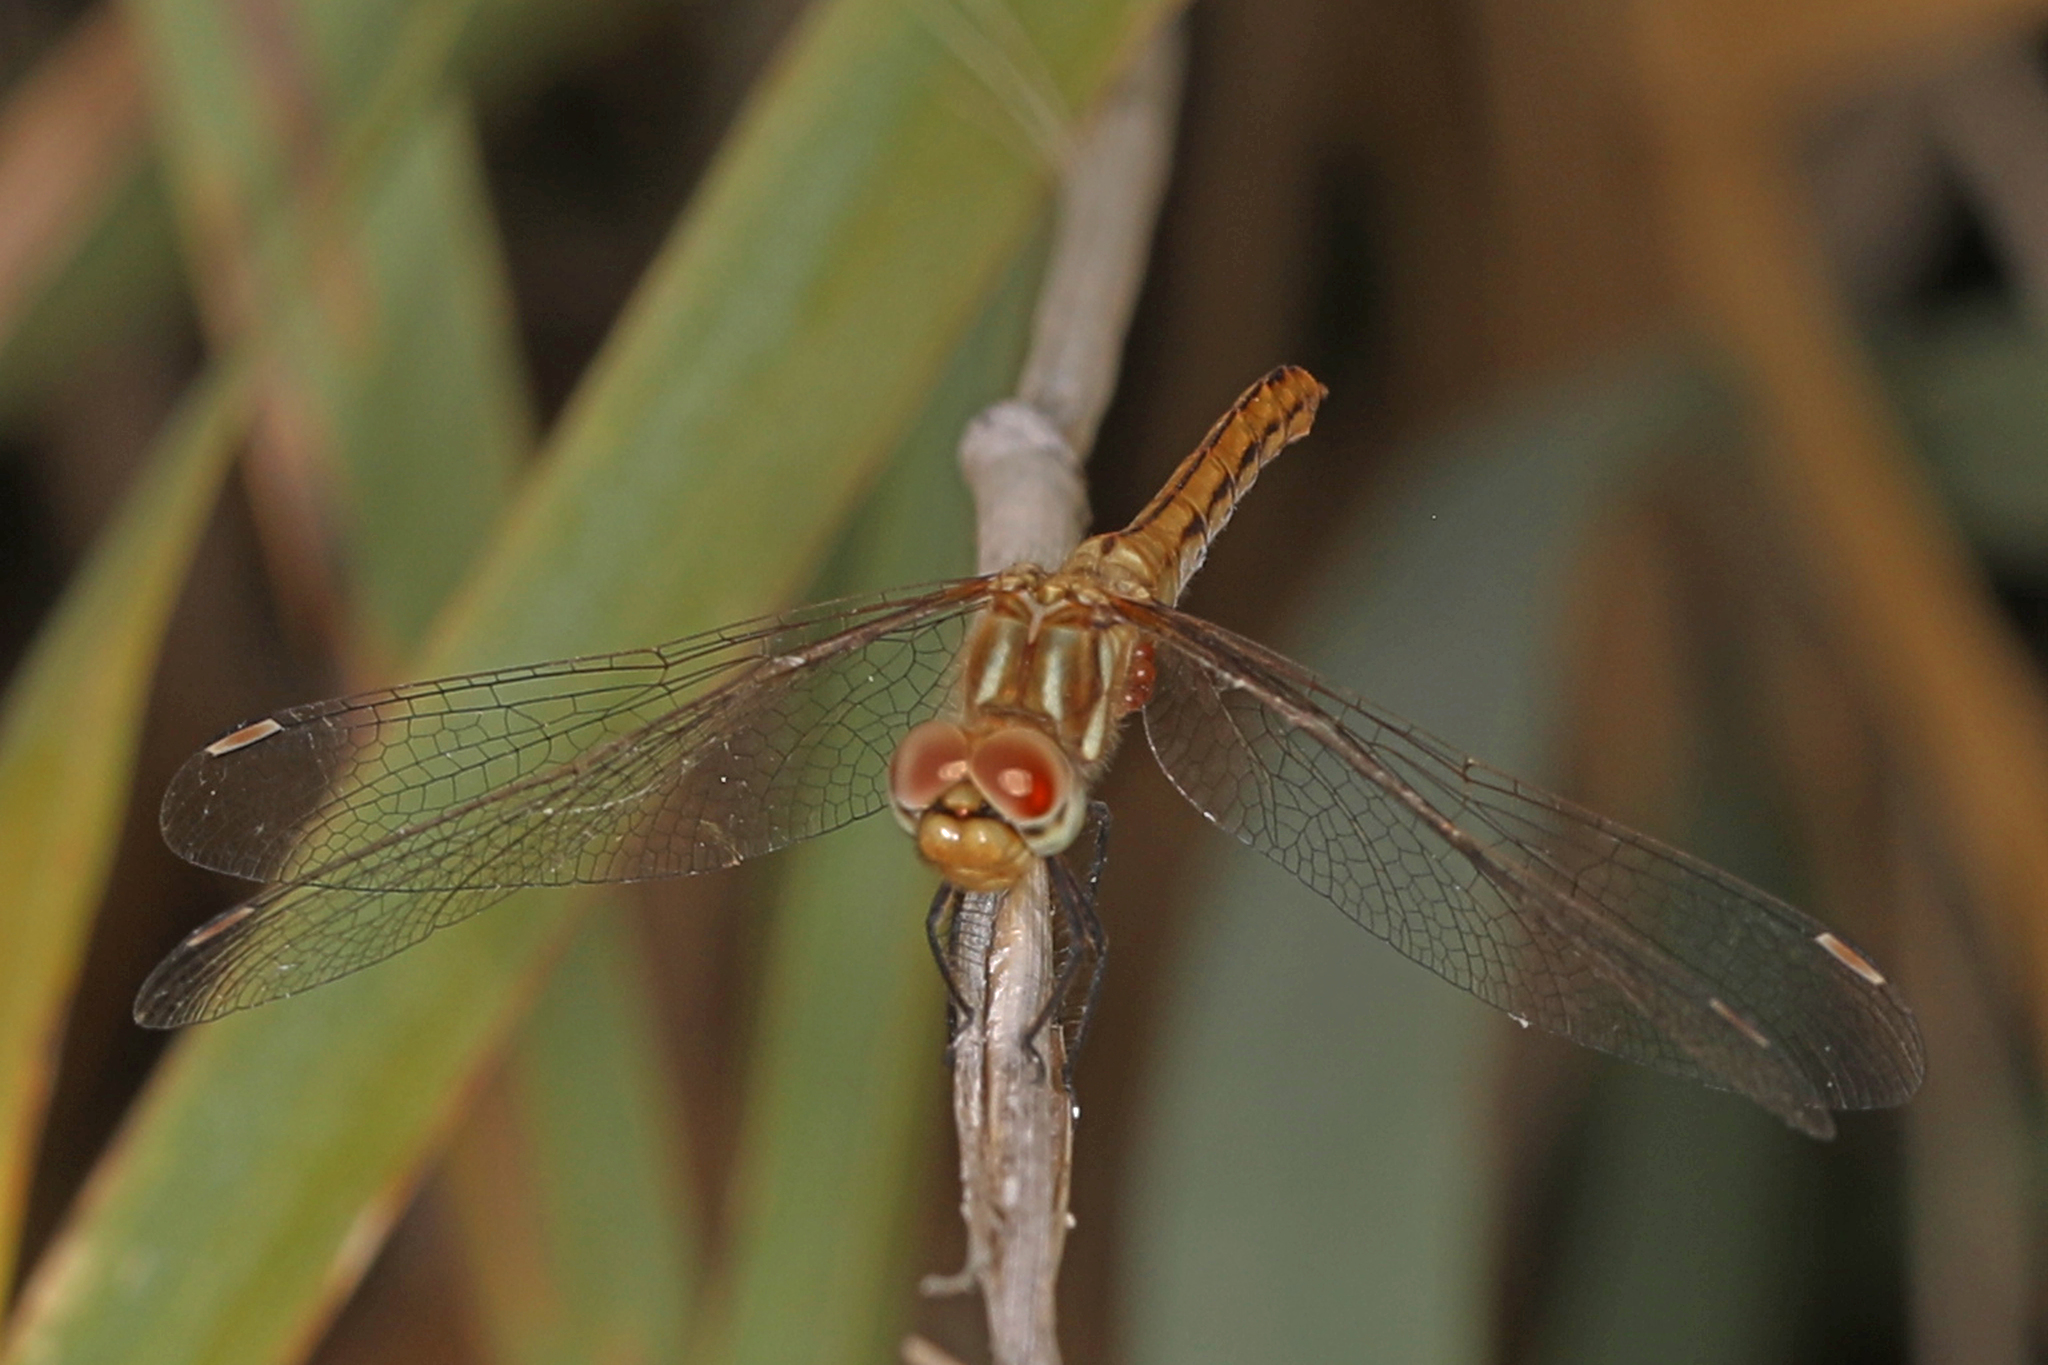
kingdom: Animalia
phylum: Arthropoda
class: Insecta
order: Odonata
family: Libellulidae
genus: Sympetrum
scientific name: Sympetrum pallipes
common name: Striped meadowhawk
